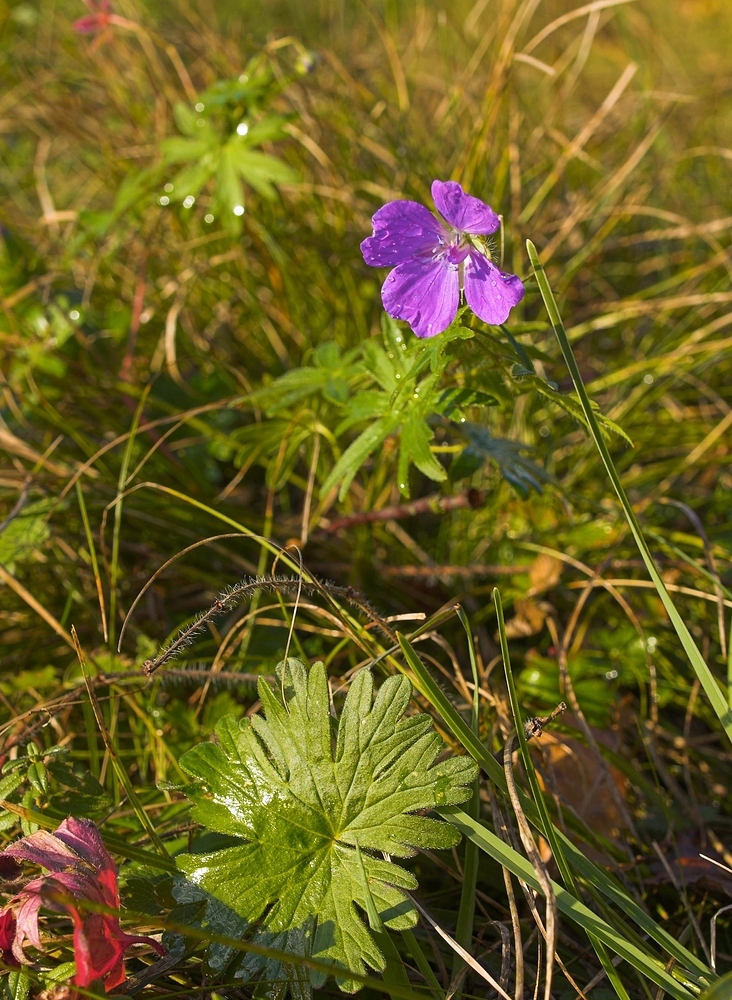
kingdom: Plantae
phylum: Tracheophyta
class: Magnoliopsida
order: Geraniales
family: Geraniaceae
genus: Geranium
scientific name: Geranium sanguineum
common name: Bloody crane's-bill
